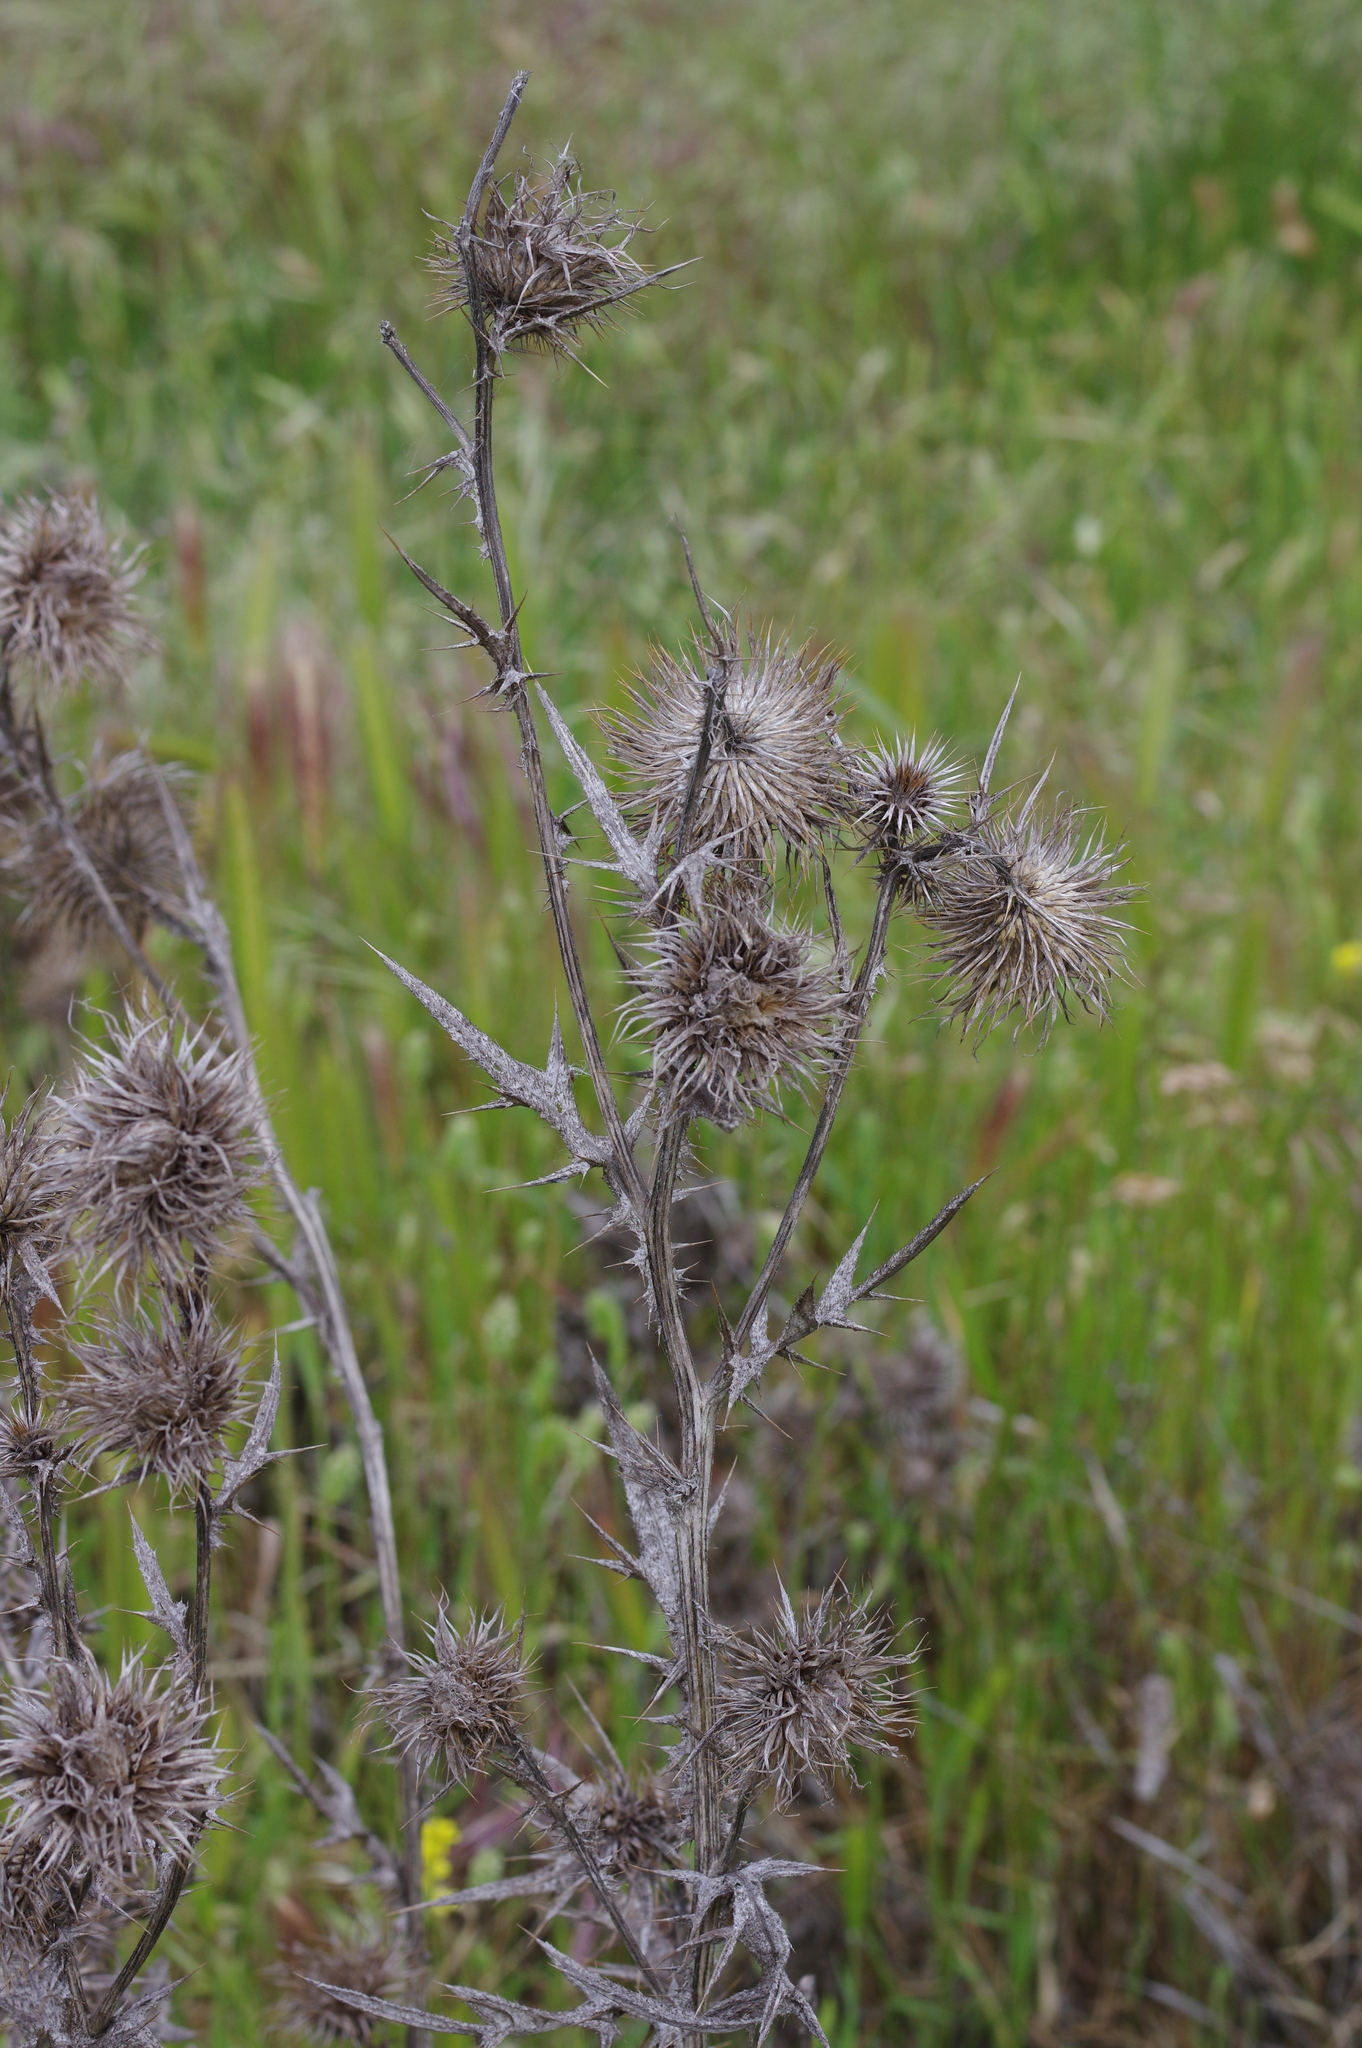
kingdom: Plantae
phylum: Tracheophyta
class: Magnoliopsida
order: Asterales
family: Asteraceae
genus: Cirsium
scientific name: Cirsium vulgare
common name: Bull thistle
